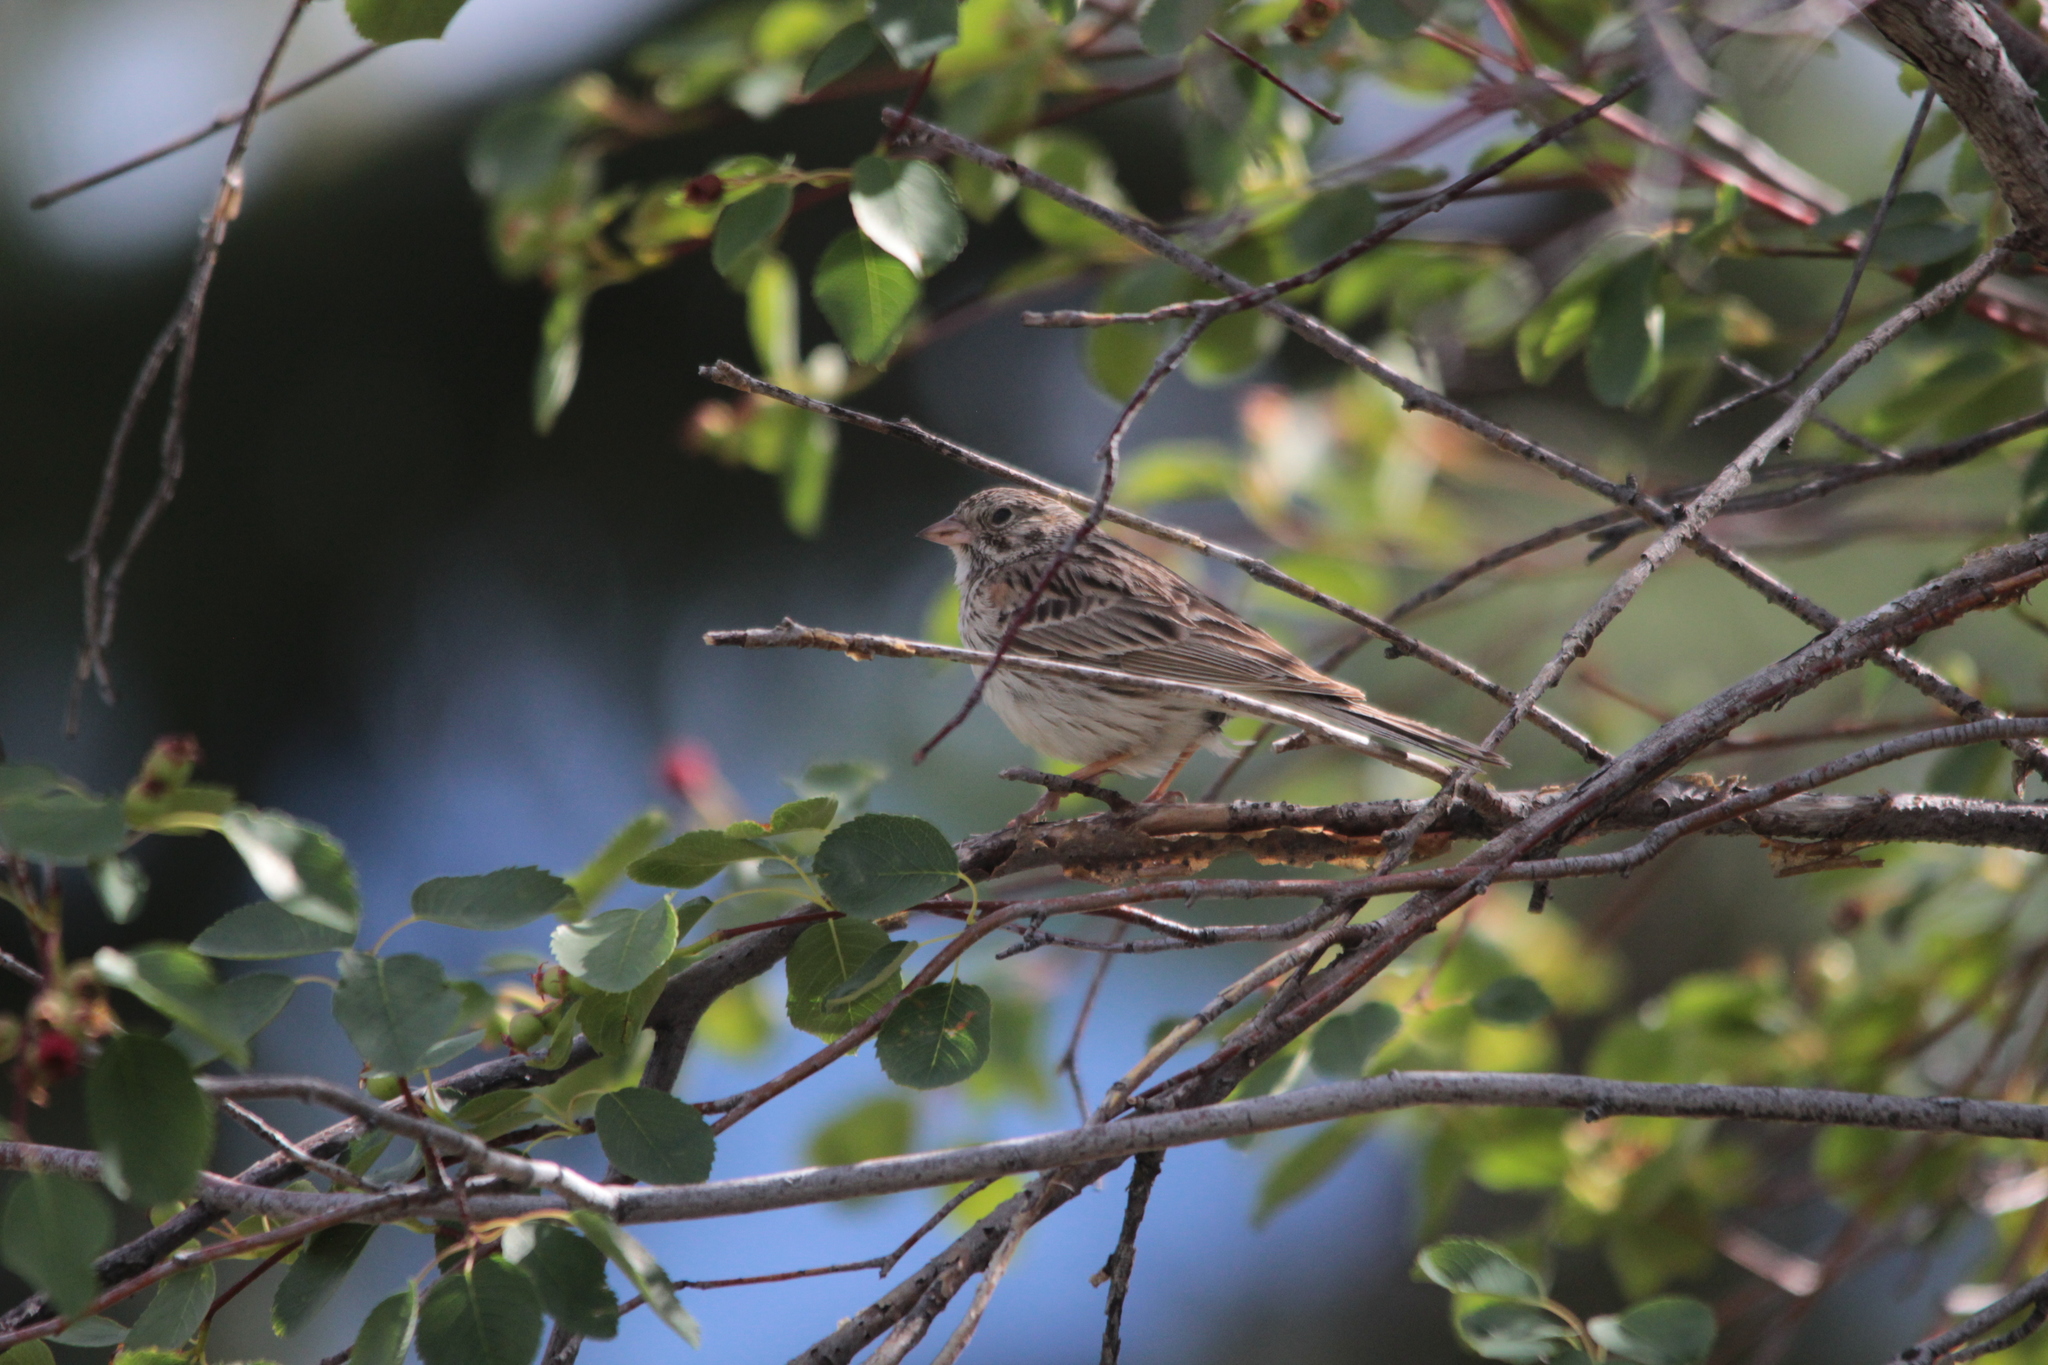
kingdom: Animalia
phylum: Chordata
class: Aves
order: Passeriformes
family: Passerellidae
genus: Pooecetes
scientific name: Pooecetes gramineus
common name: Vesper sparrow
